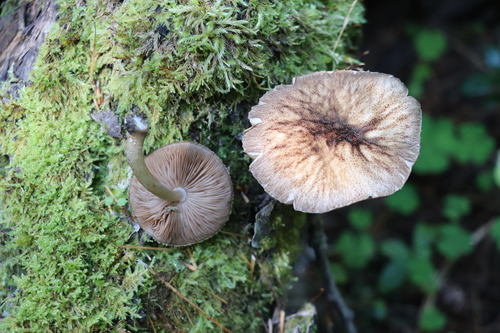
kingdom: Fungi
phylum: Basidiomycota
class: Agaricomycetes
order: Agaricales
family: Pluteaceae
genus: Pluteus
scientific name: Pluteus umbrosus
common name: Velvet shield
